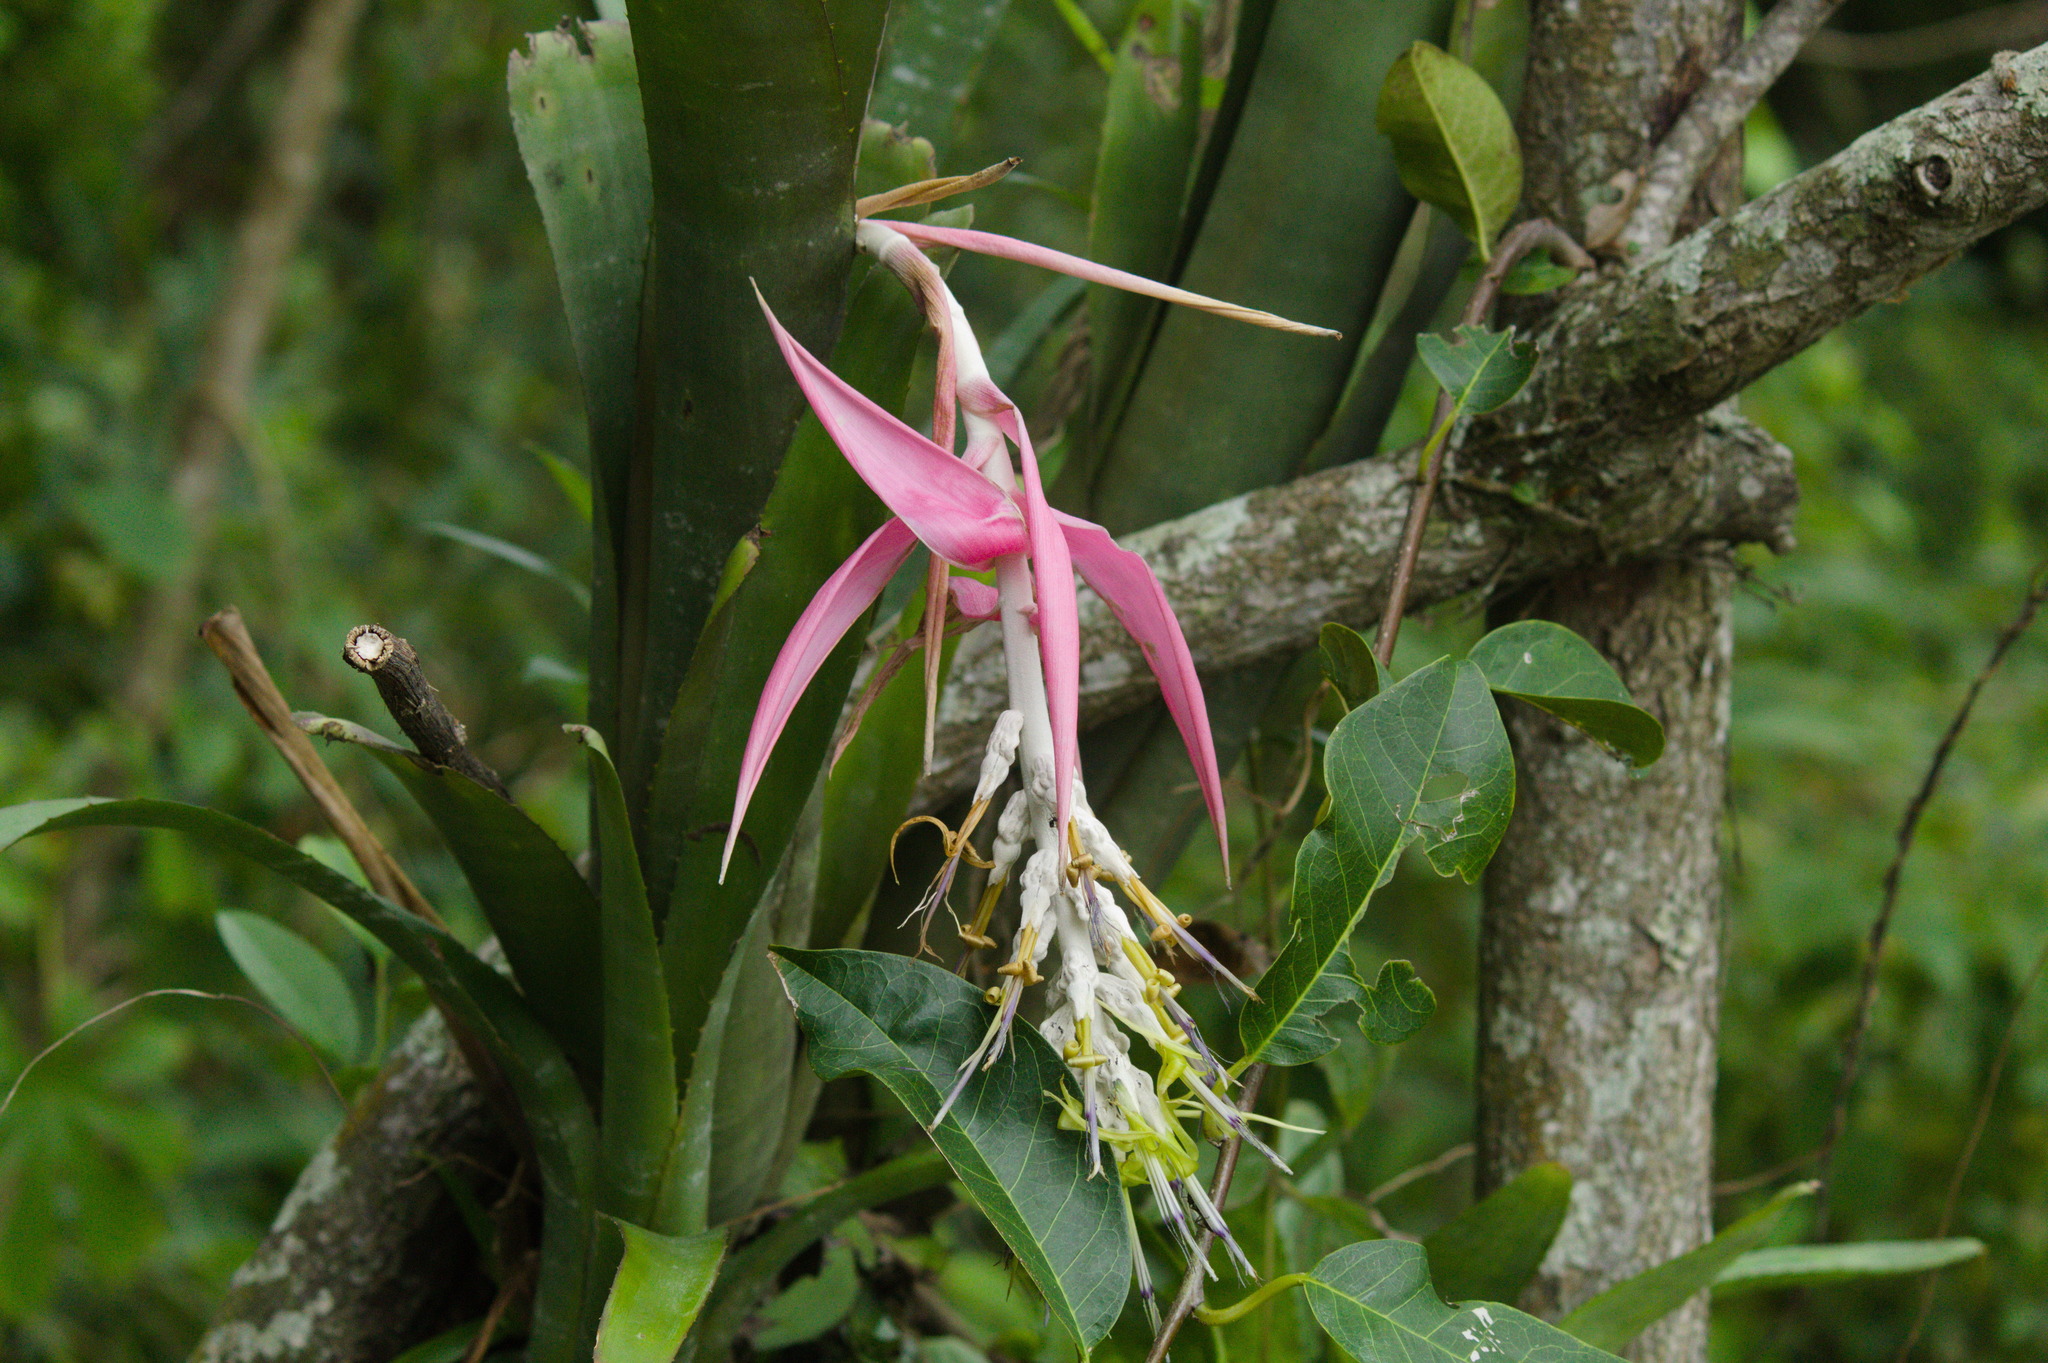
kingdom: Plantae
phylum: Tracheophyta
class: Liliopsida
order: Poales
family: Bromeliaceae
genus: Billbergia
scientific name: Billbergia zebrina
